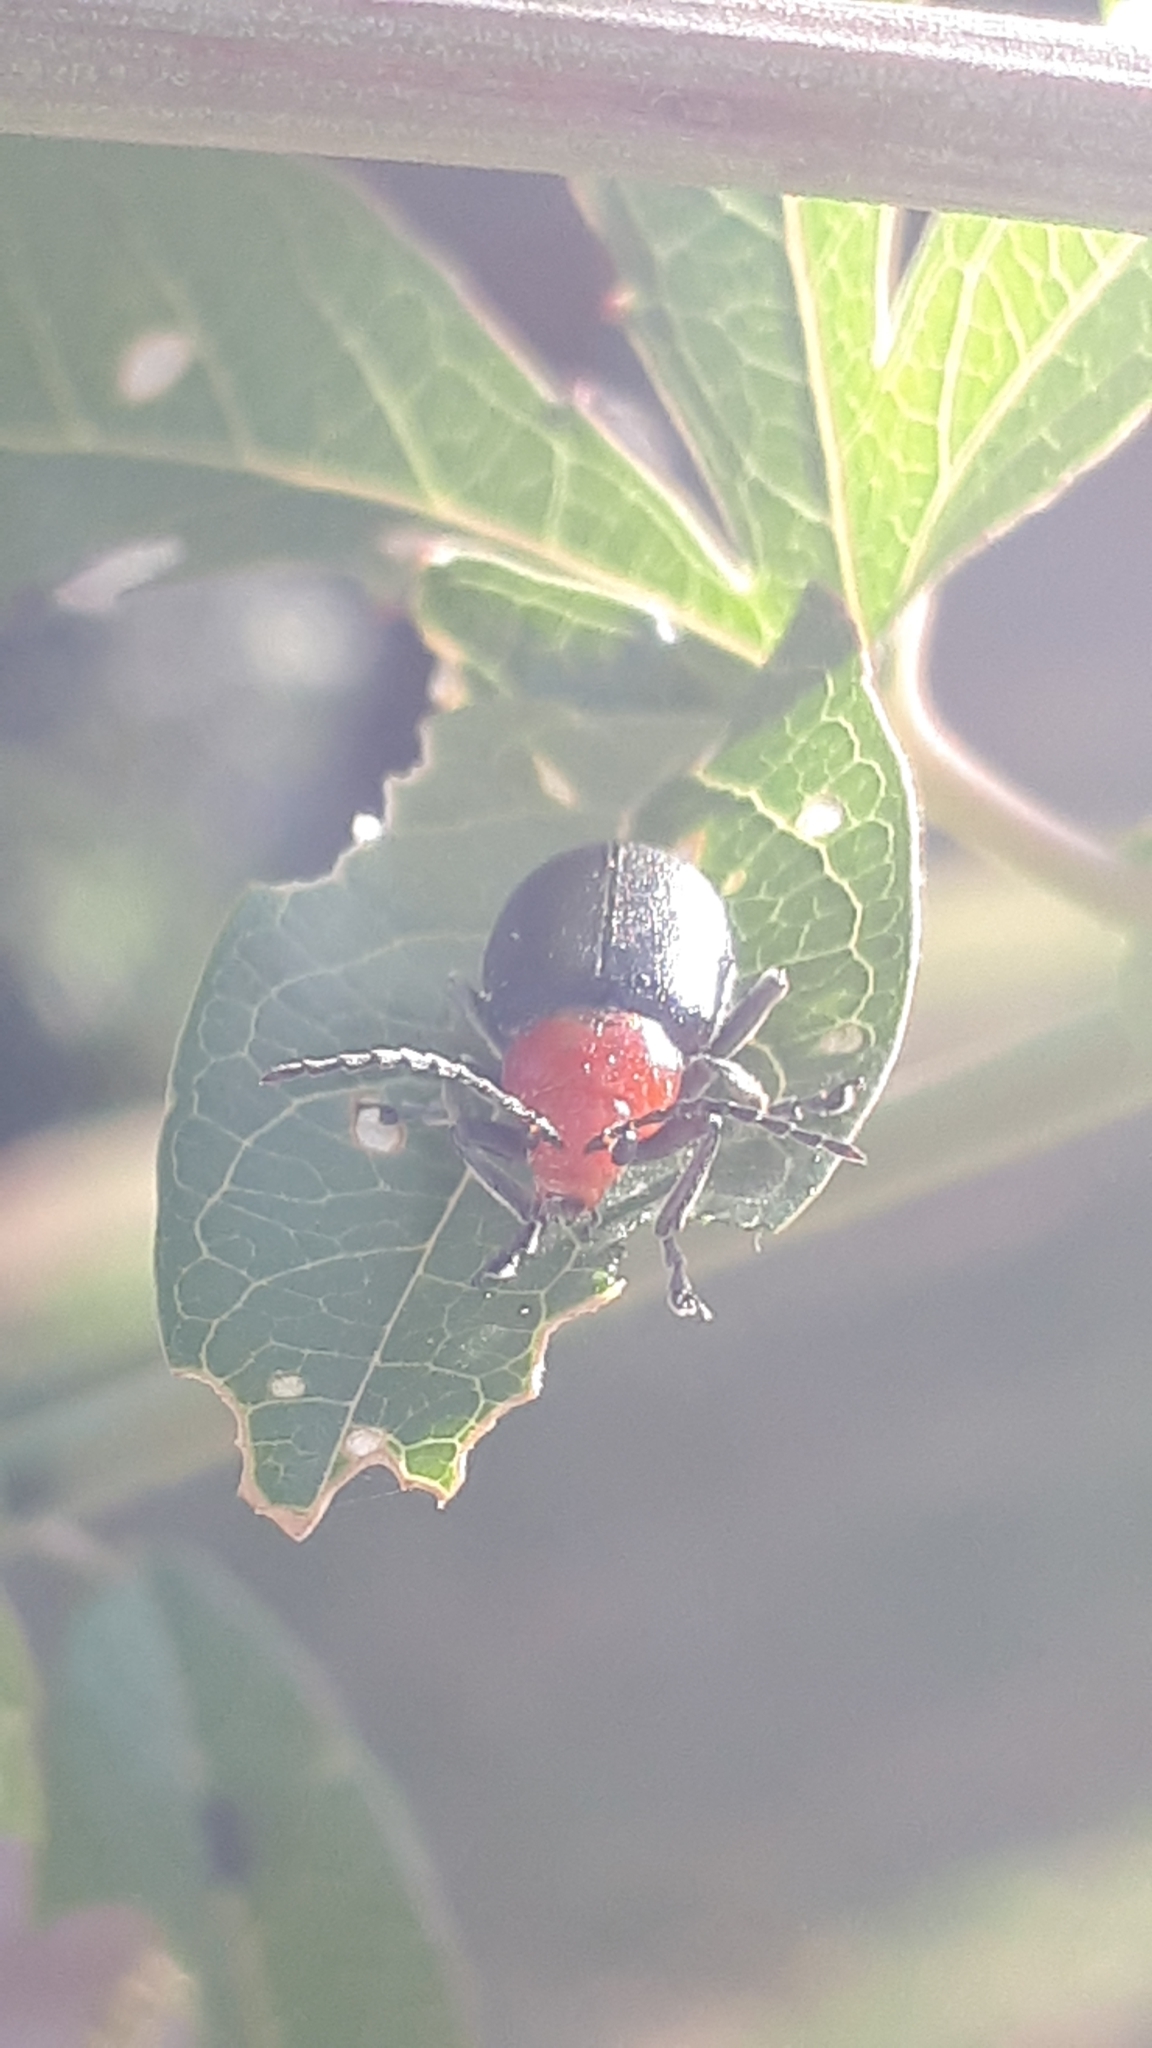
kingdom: Animalia
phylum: Arthropoda
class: Insecta
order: Coleoptera
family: Chrysomelidae
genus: Cacoscelis
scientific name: Cacoscelis
